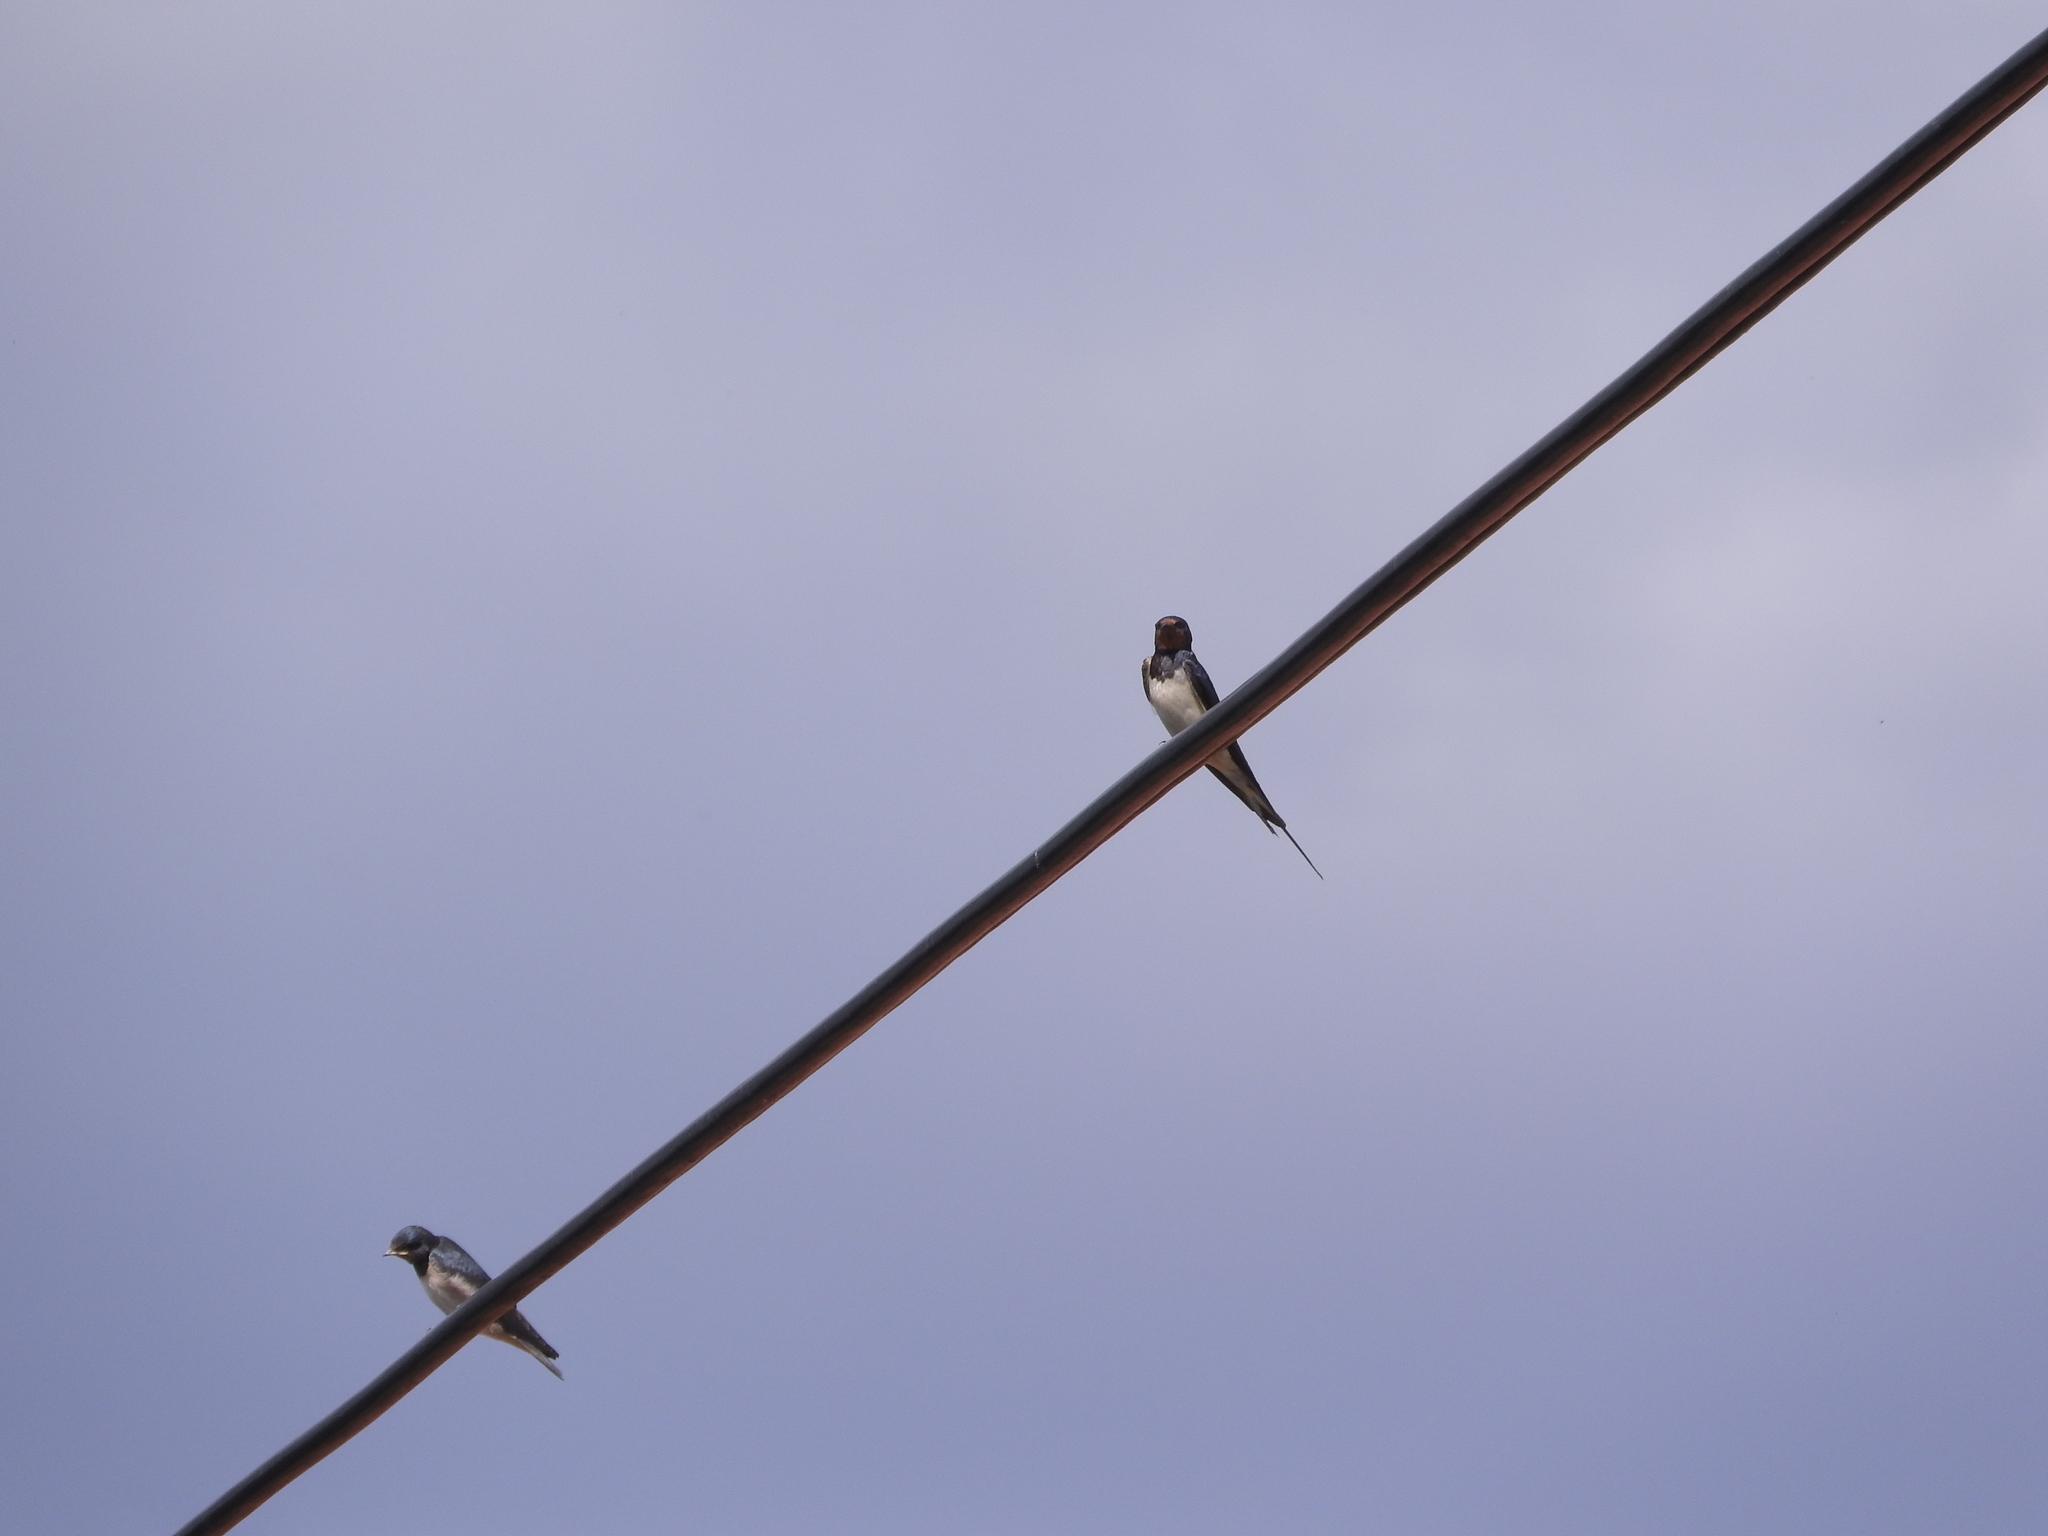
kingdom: Animalia
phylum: Chordata
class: Aves
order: Passeriformes
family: Hirundinidae
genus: Hirundo
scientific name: Hirundo rustica
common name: Barn swallow
